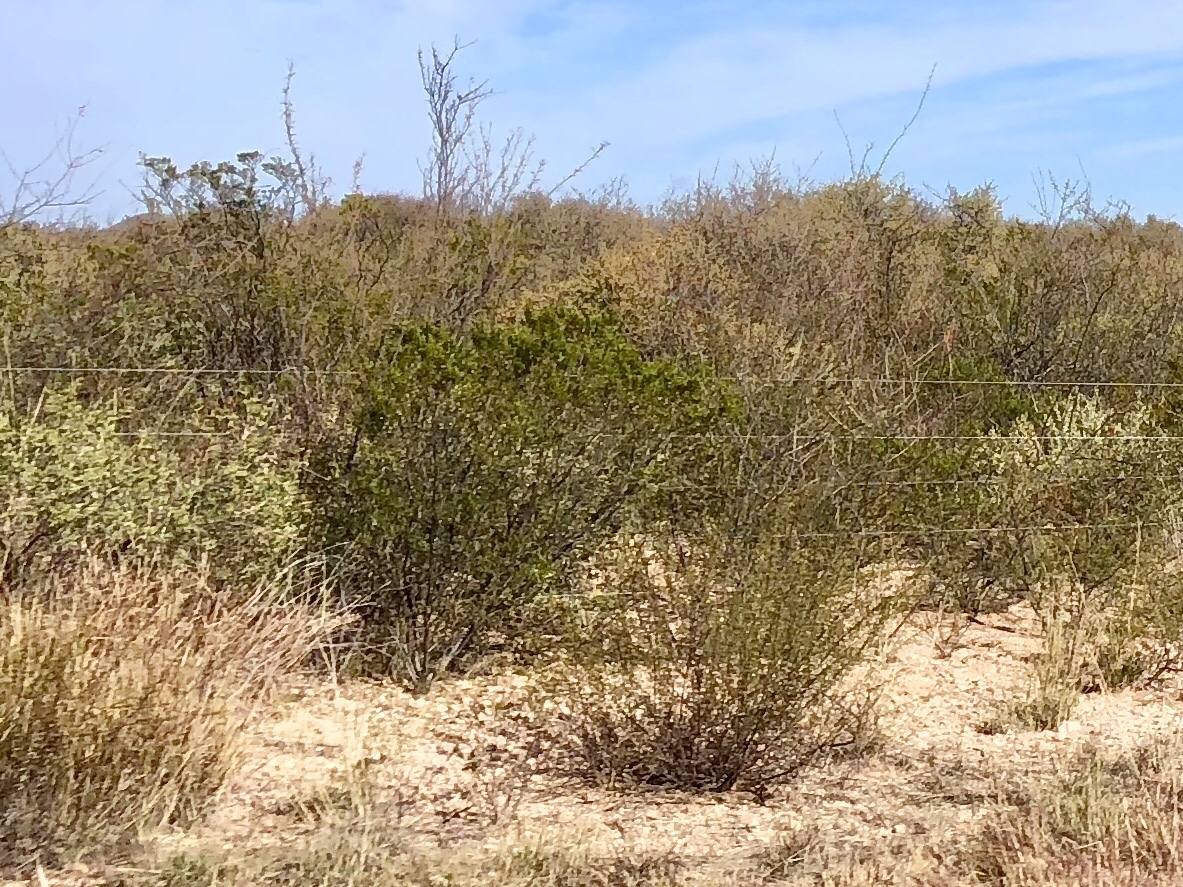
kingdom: Plantae
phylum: Tracheophyta
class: Magnoliopsida
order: Zygophyllales
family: Zygophyllaceae
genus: Larrea
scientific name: Larrea tridentata
